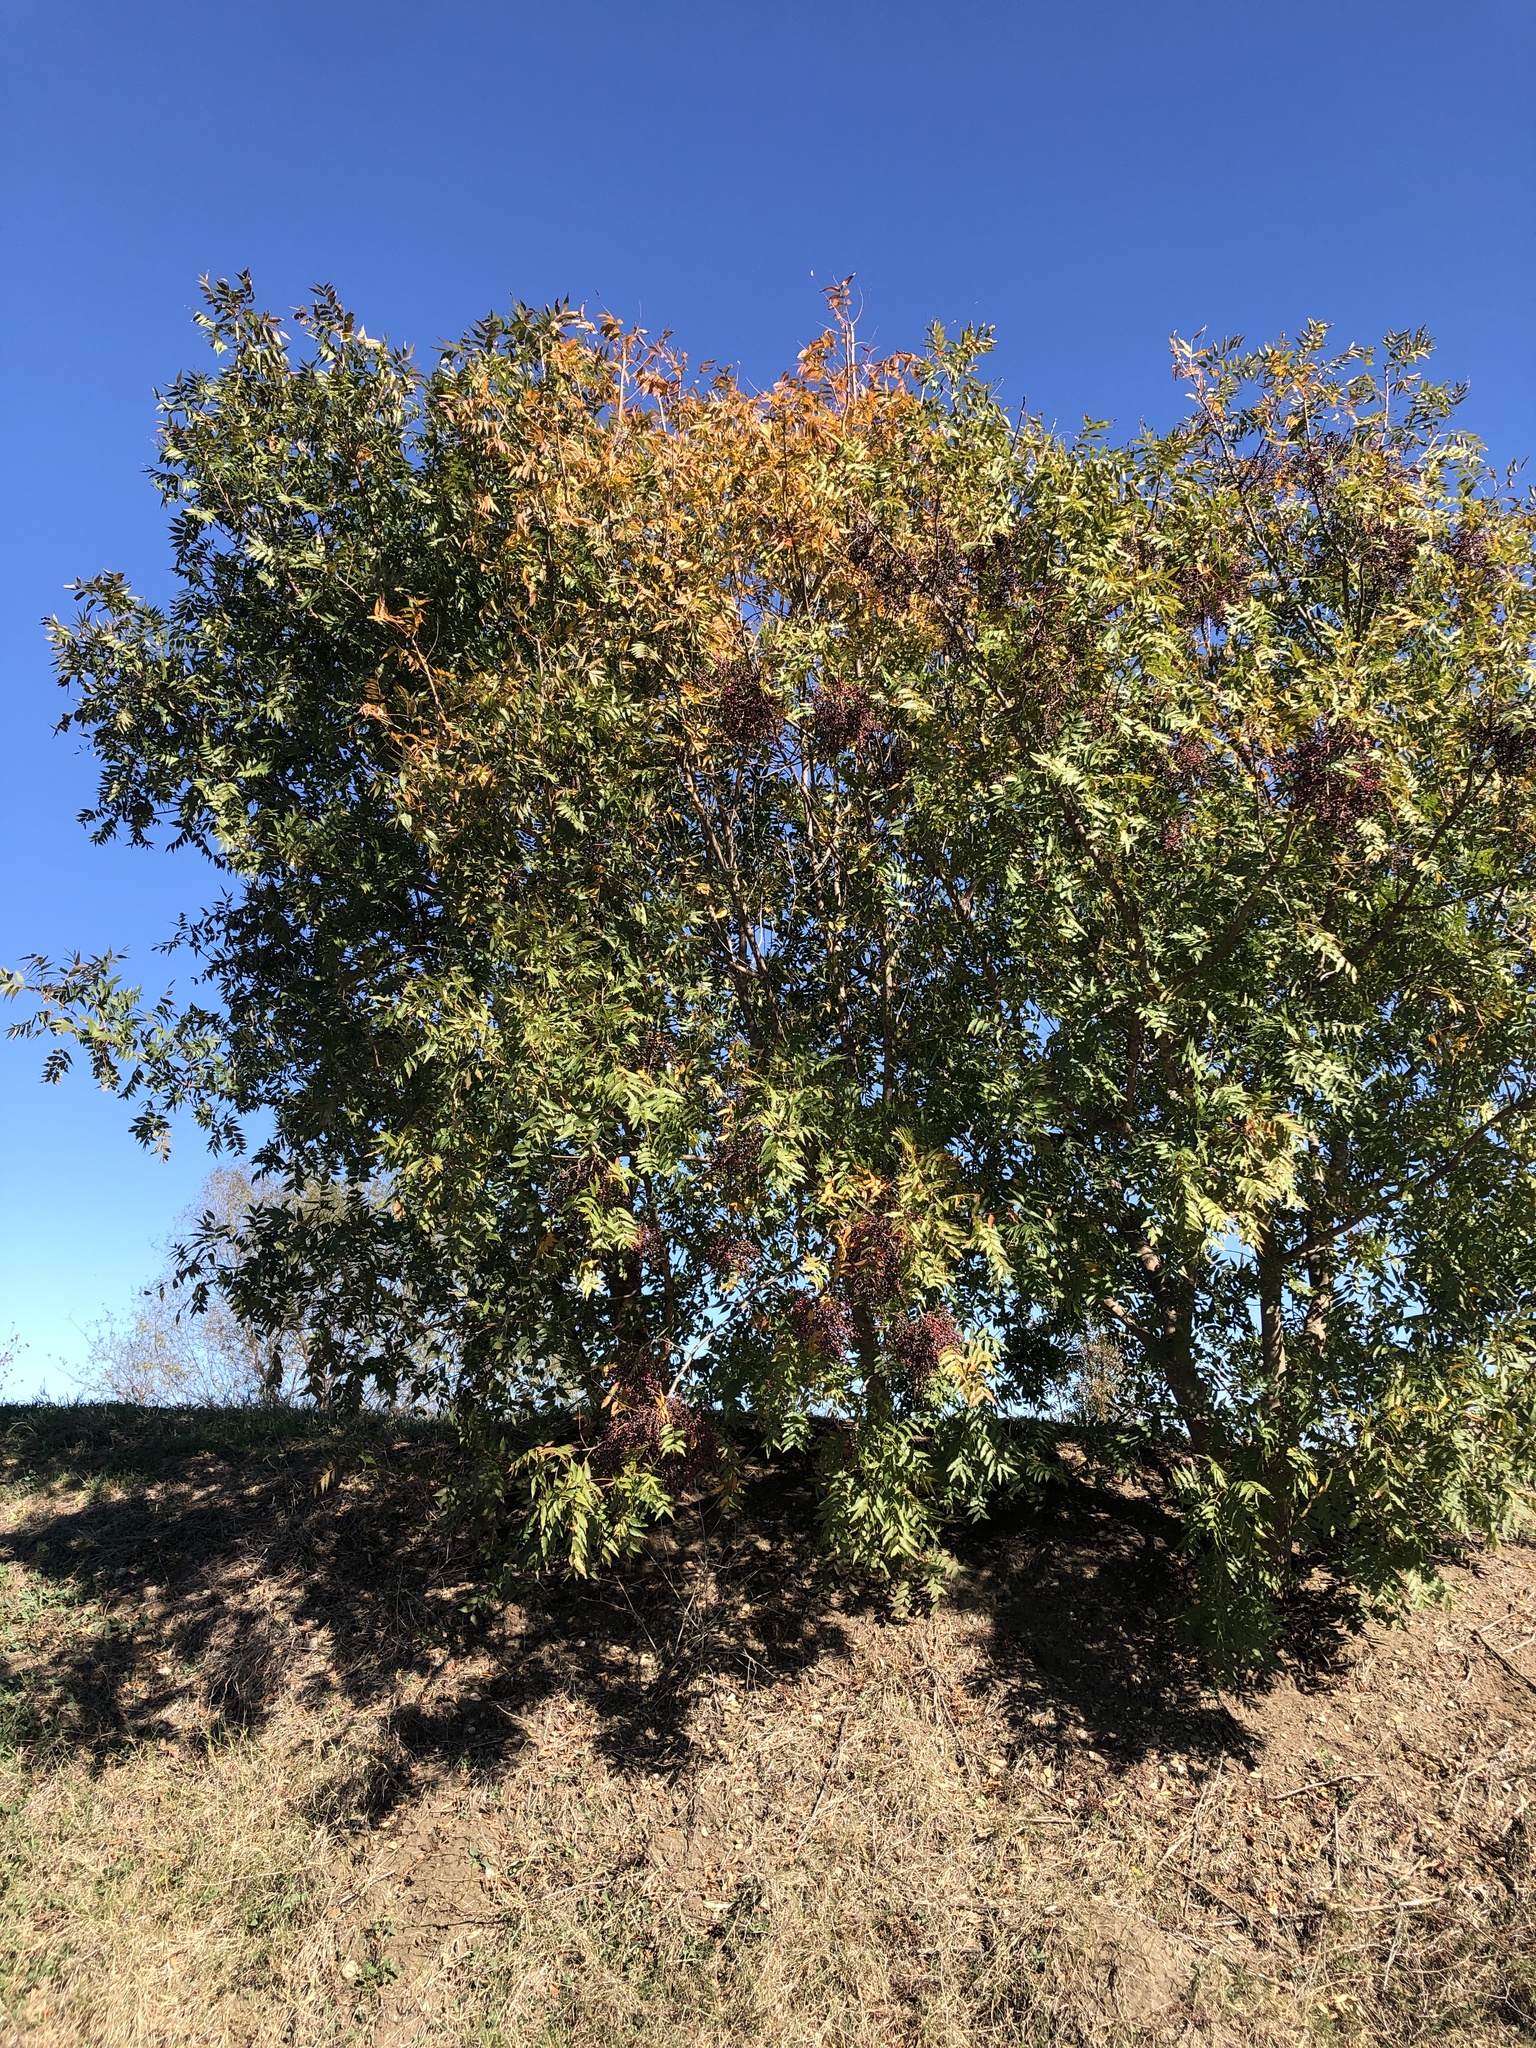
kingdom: Plantae
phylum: Tracheophyta
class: Magnoliopsida
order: Sapindales
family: Anacardiaceae
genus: Pistacia
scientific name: Pistacia chinensis
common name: Chinese pistache
